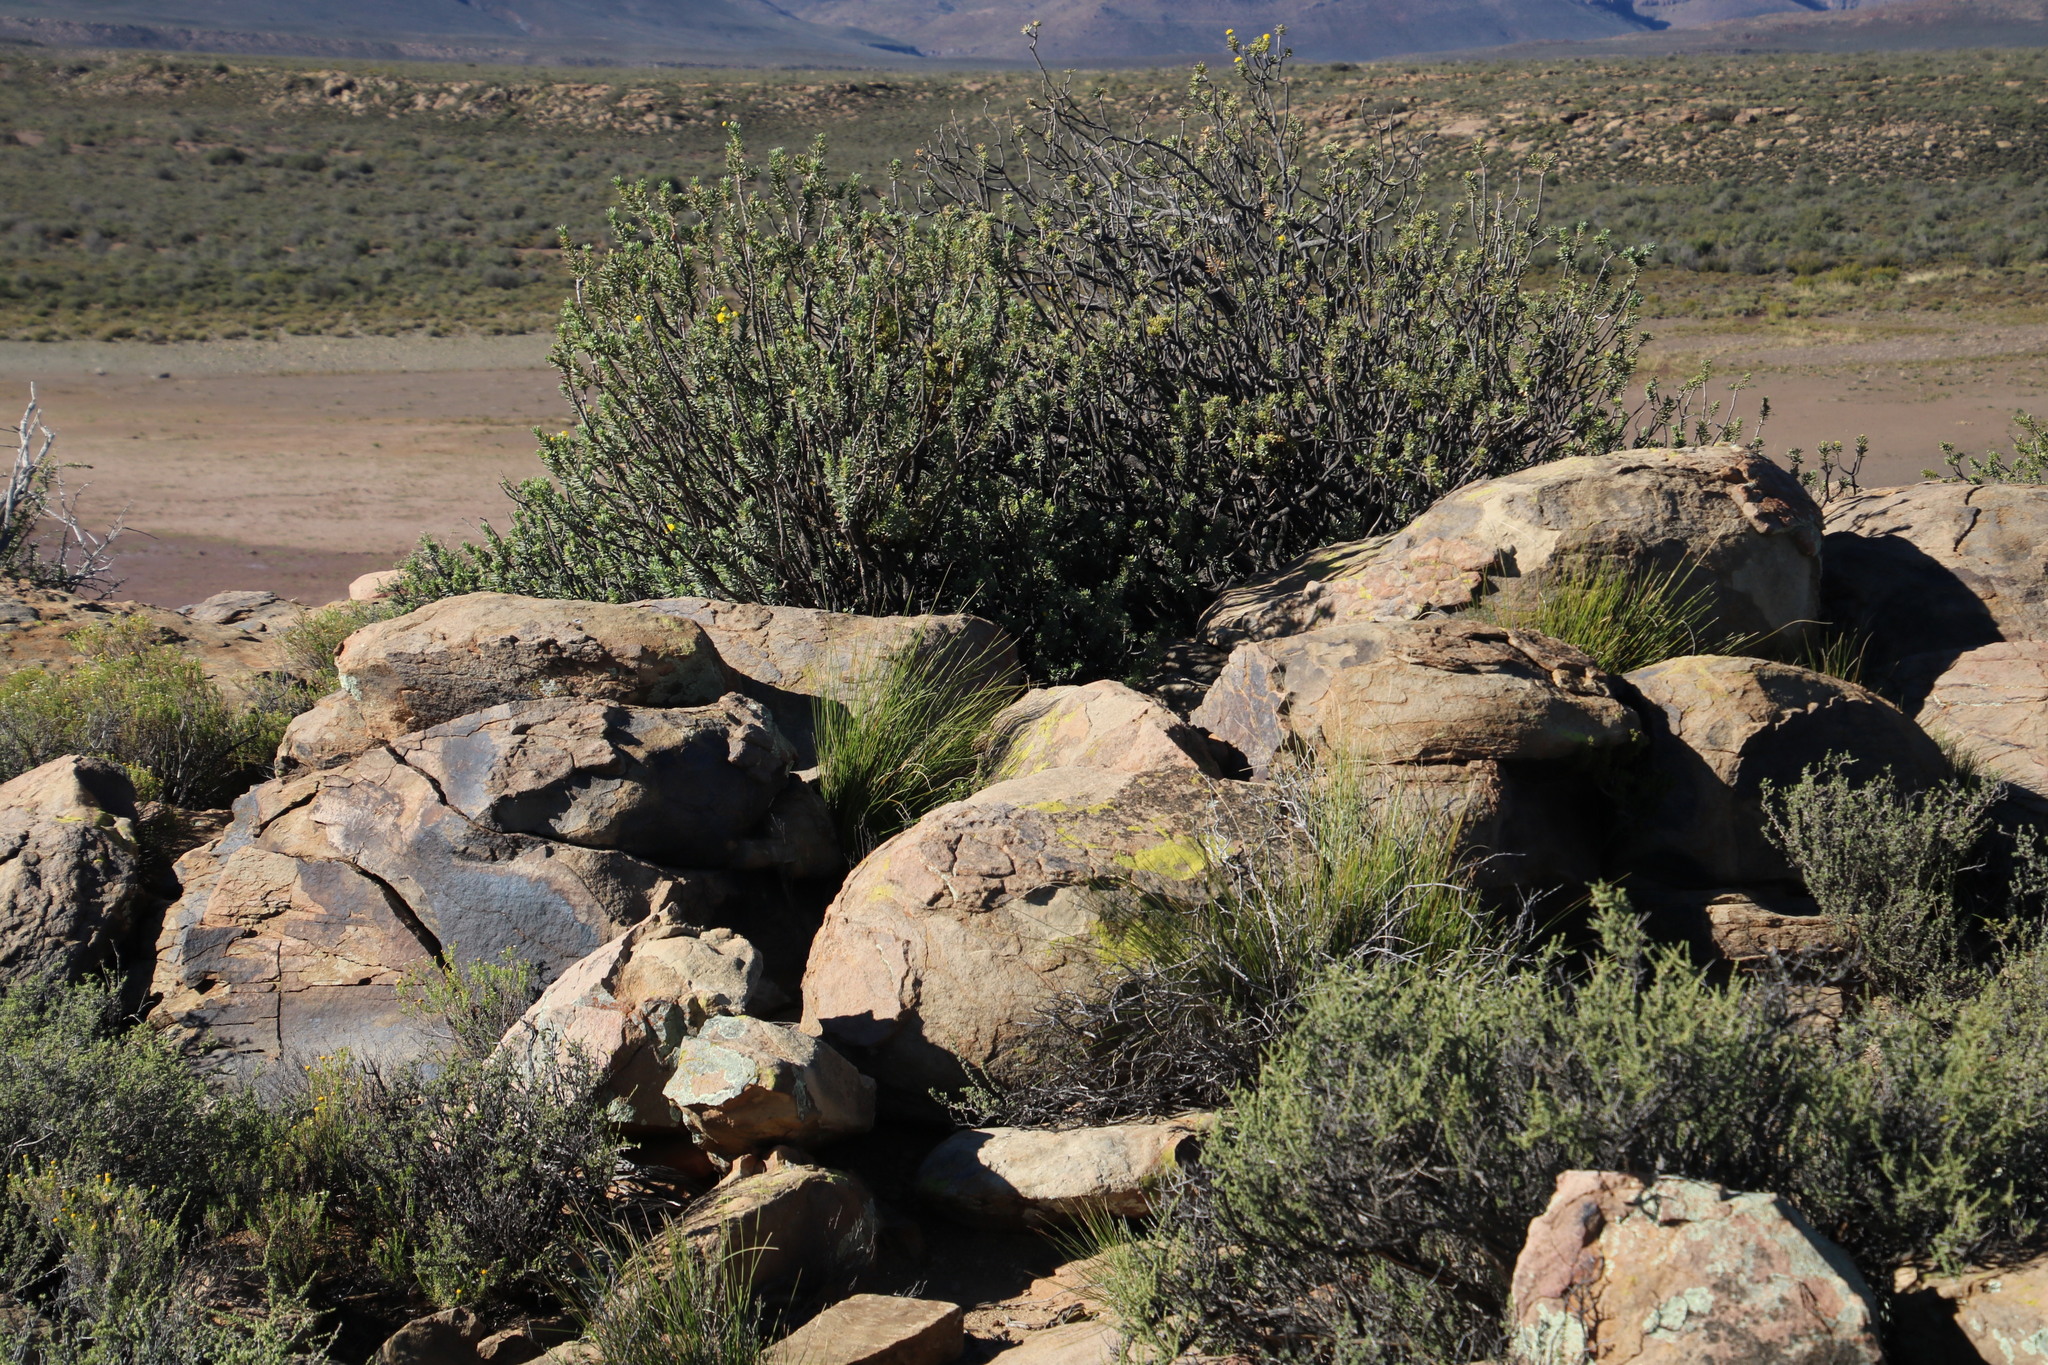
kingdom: Plantae
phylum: Tracheophyta
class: Magnoliopsida
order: Ericales
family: Ebenaceae
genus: Diospyros
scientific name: Diospyros pubescens
